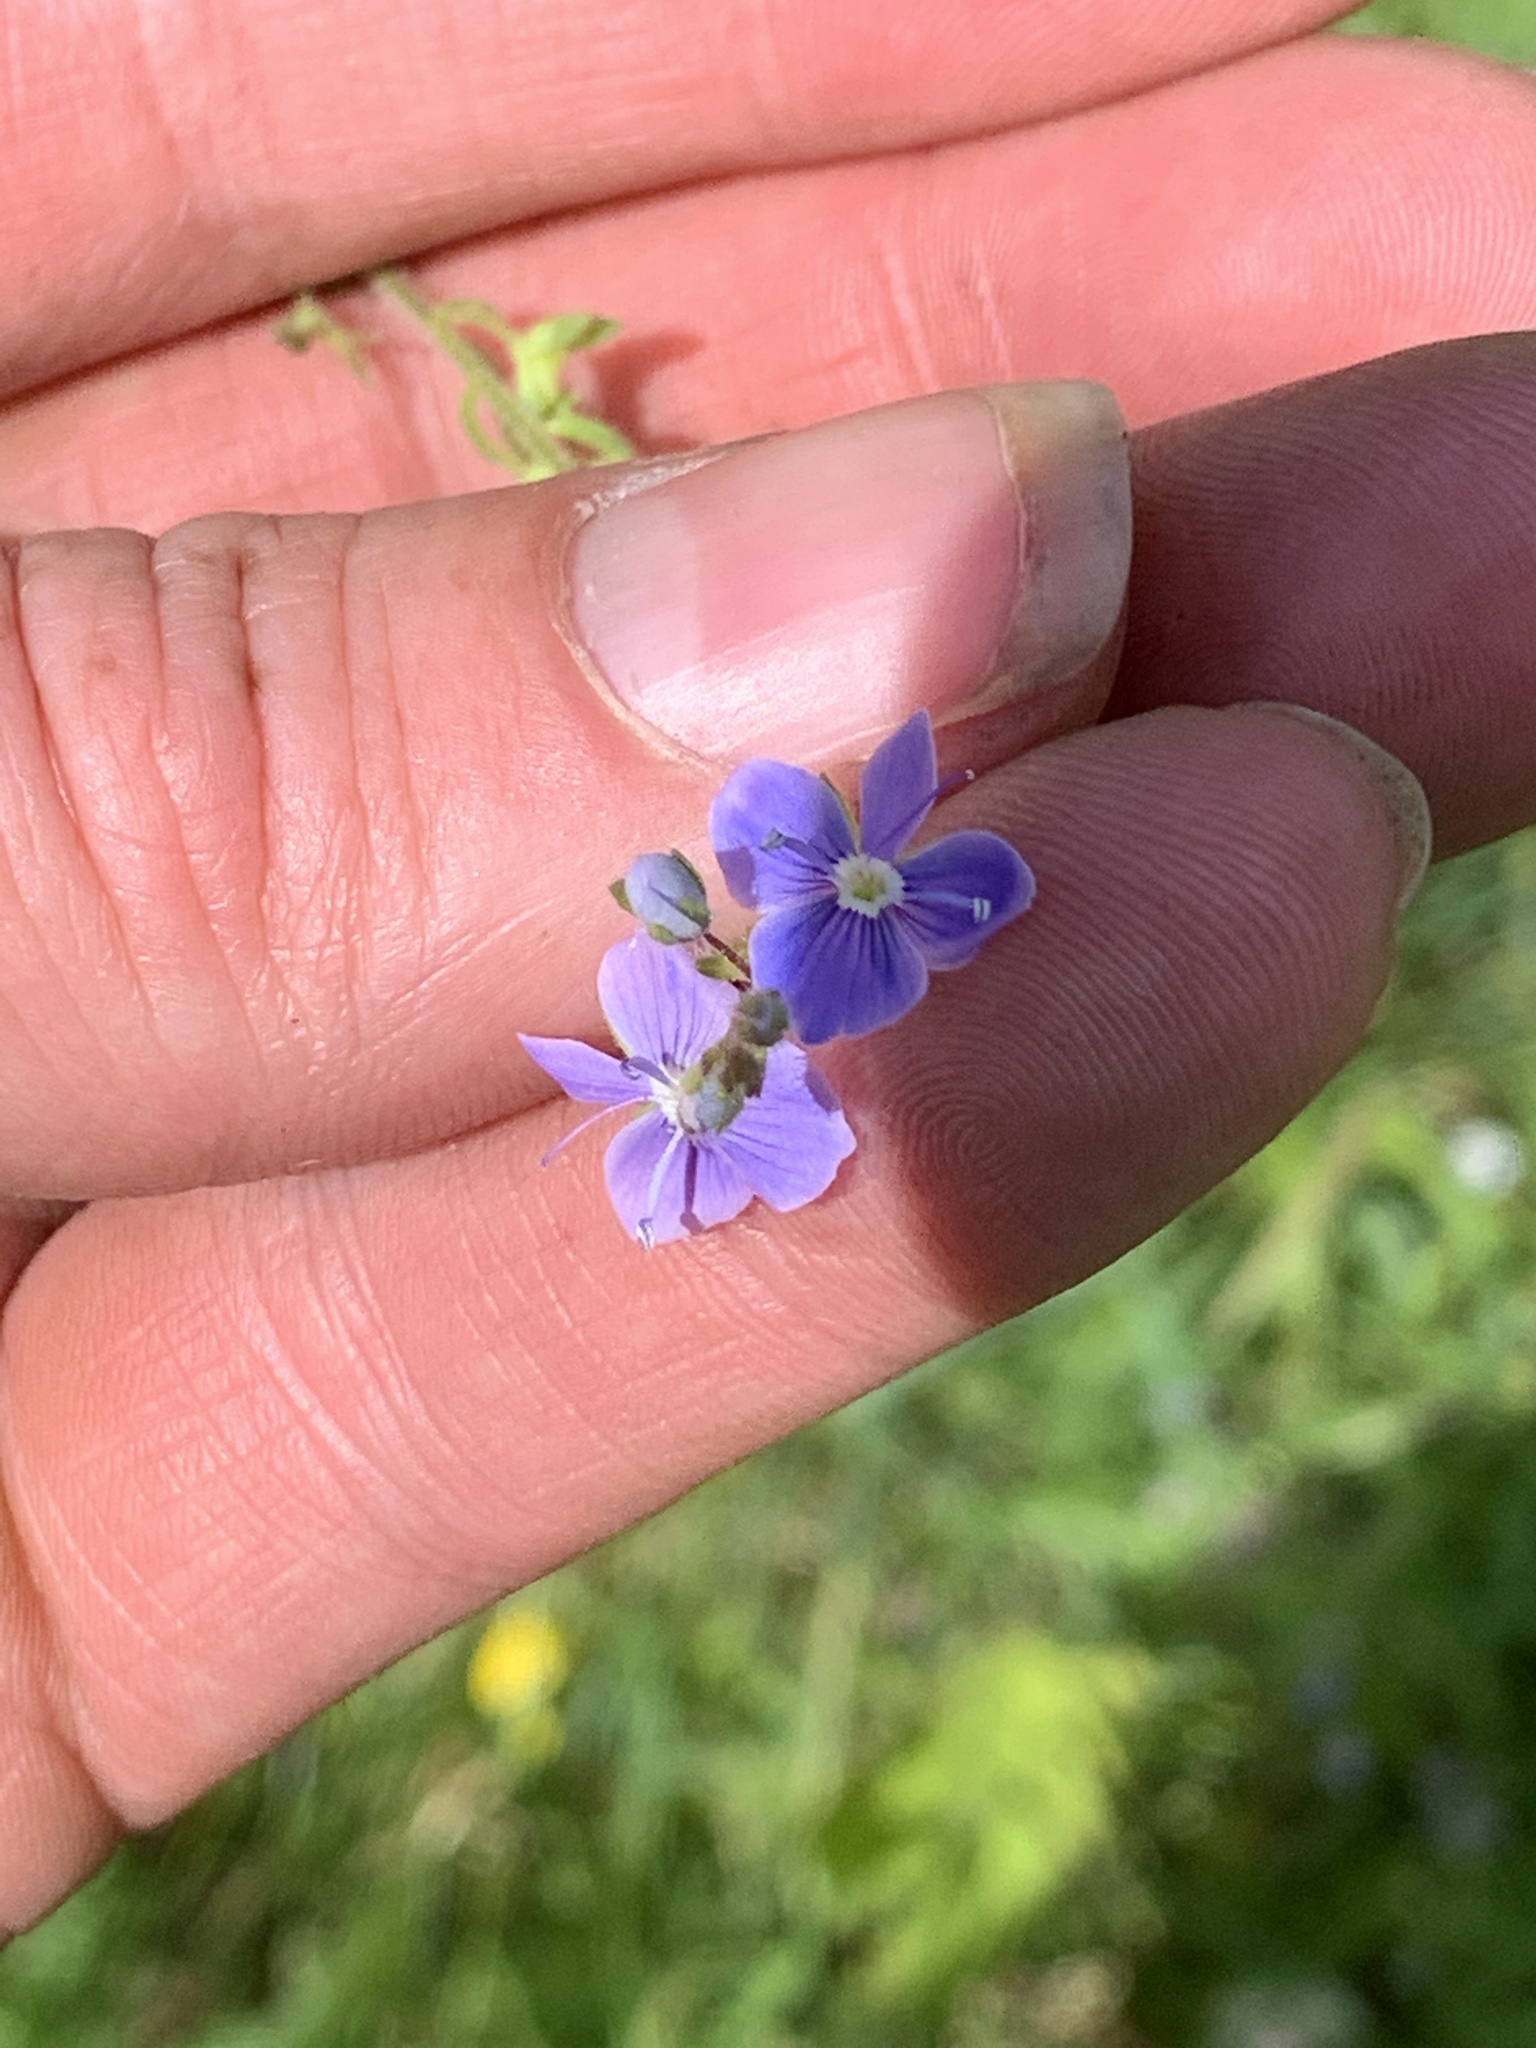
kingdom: Plantae
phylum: Tracheophyta
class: Magnoliopsida
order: Lamiales
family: Plantaginaceae
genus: Veronica
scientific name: Veronica chamaedrys
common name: Germander speedwell
